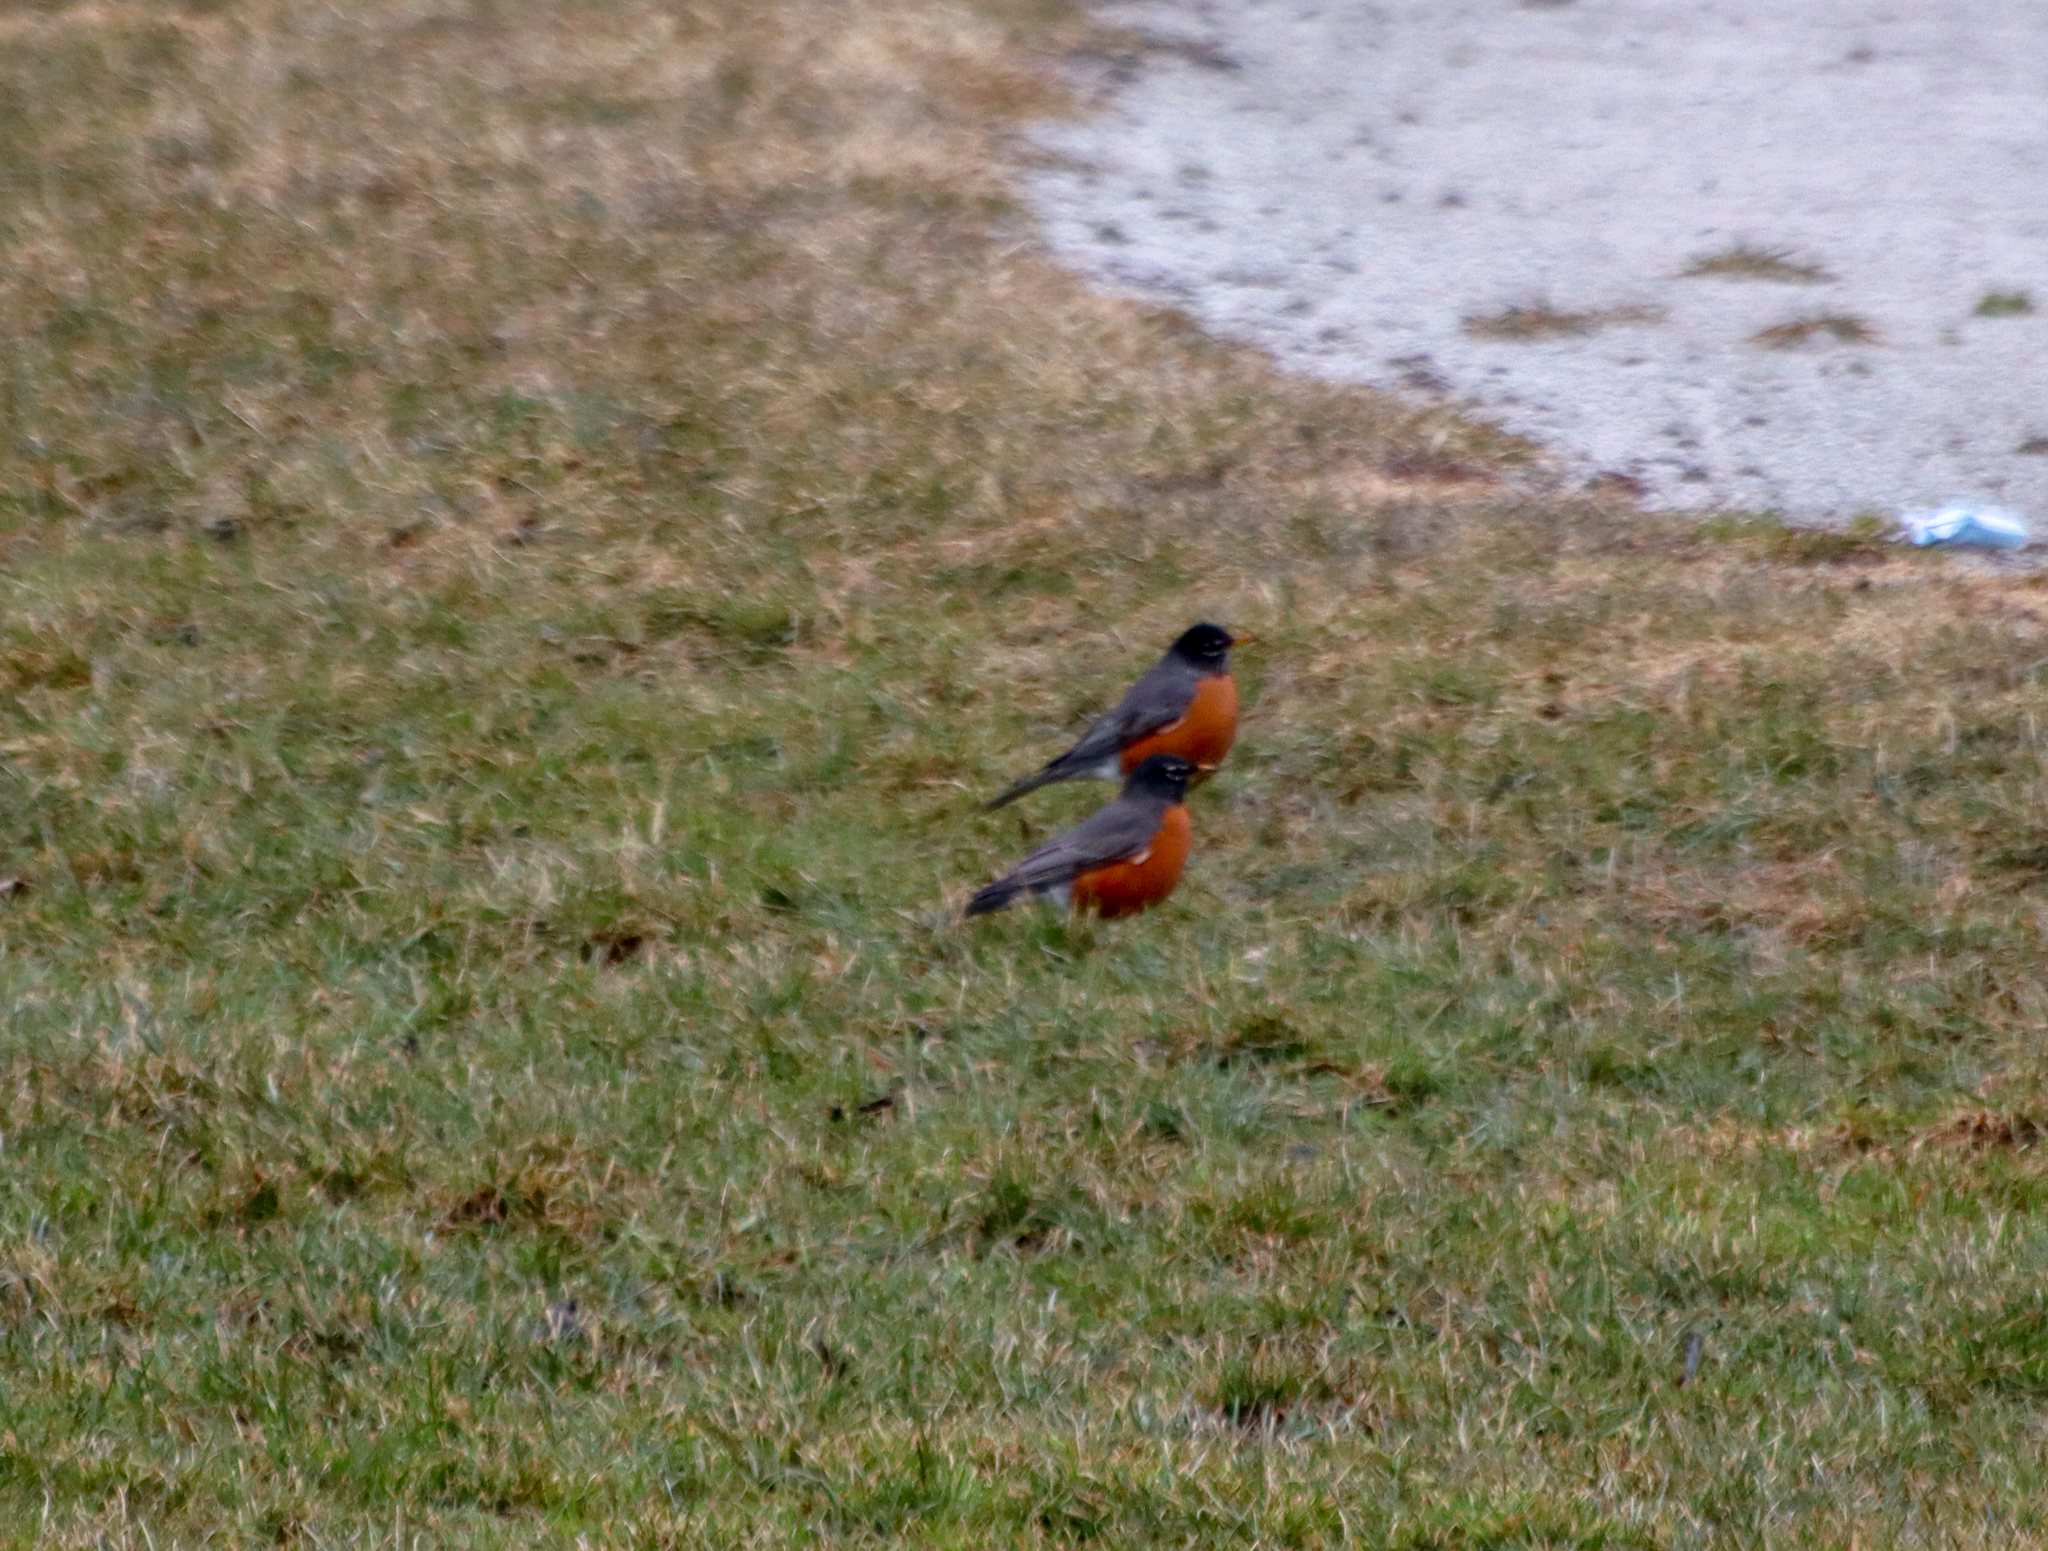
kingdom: Animalia
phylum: Chordata
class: Aves
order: Passeriformes
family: Turdidae
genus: Turdus
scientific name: Turdus migratorius
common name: American robin
